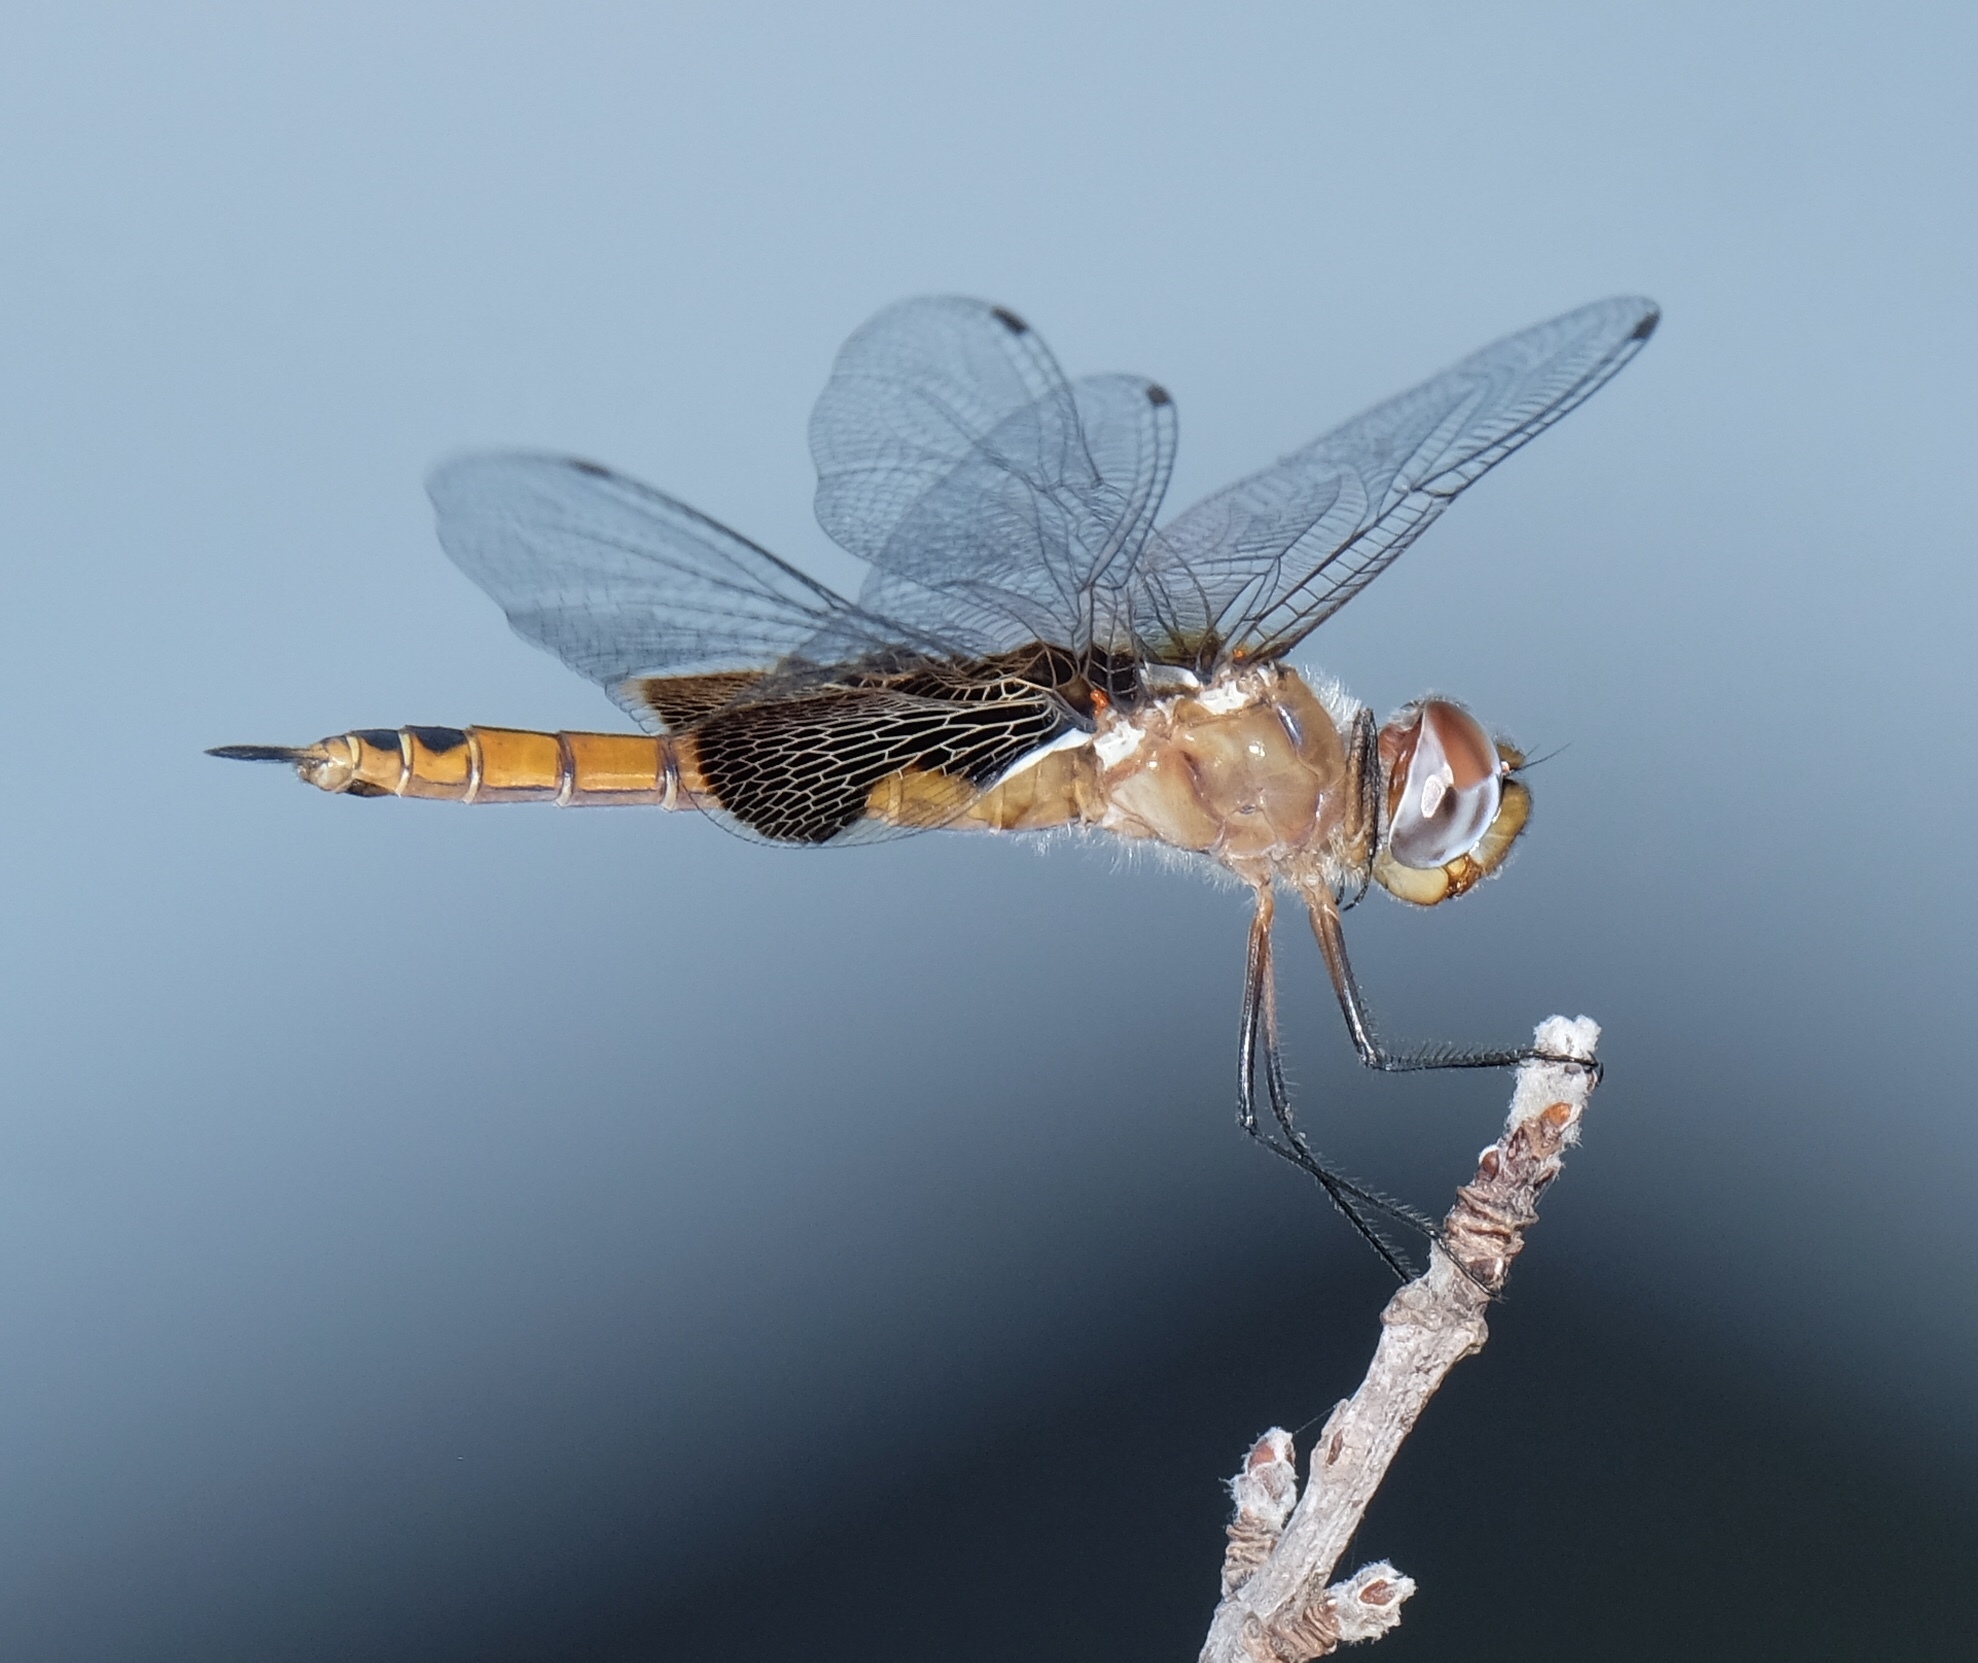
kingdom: Animalia
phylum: Arthropoda
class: Insecta
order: Odonata
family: Libellulidae
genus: Tramea
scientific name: Tramea onusta
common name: Red saddlebags
